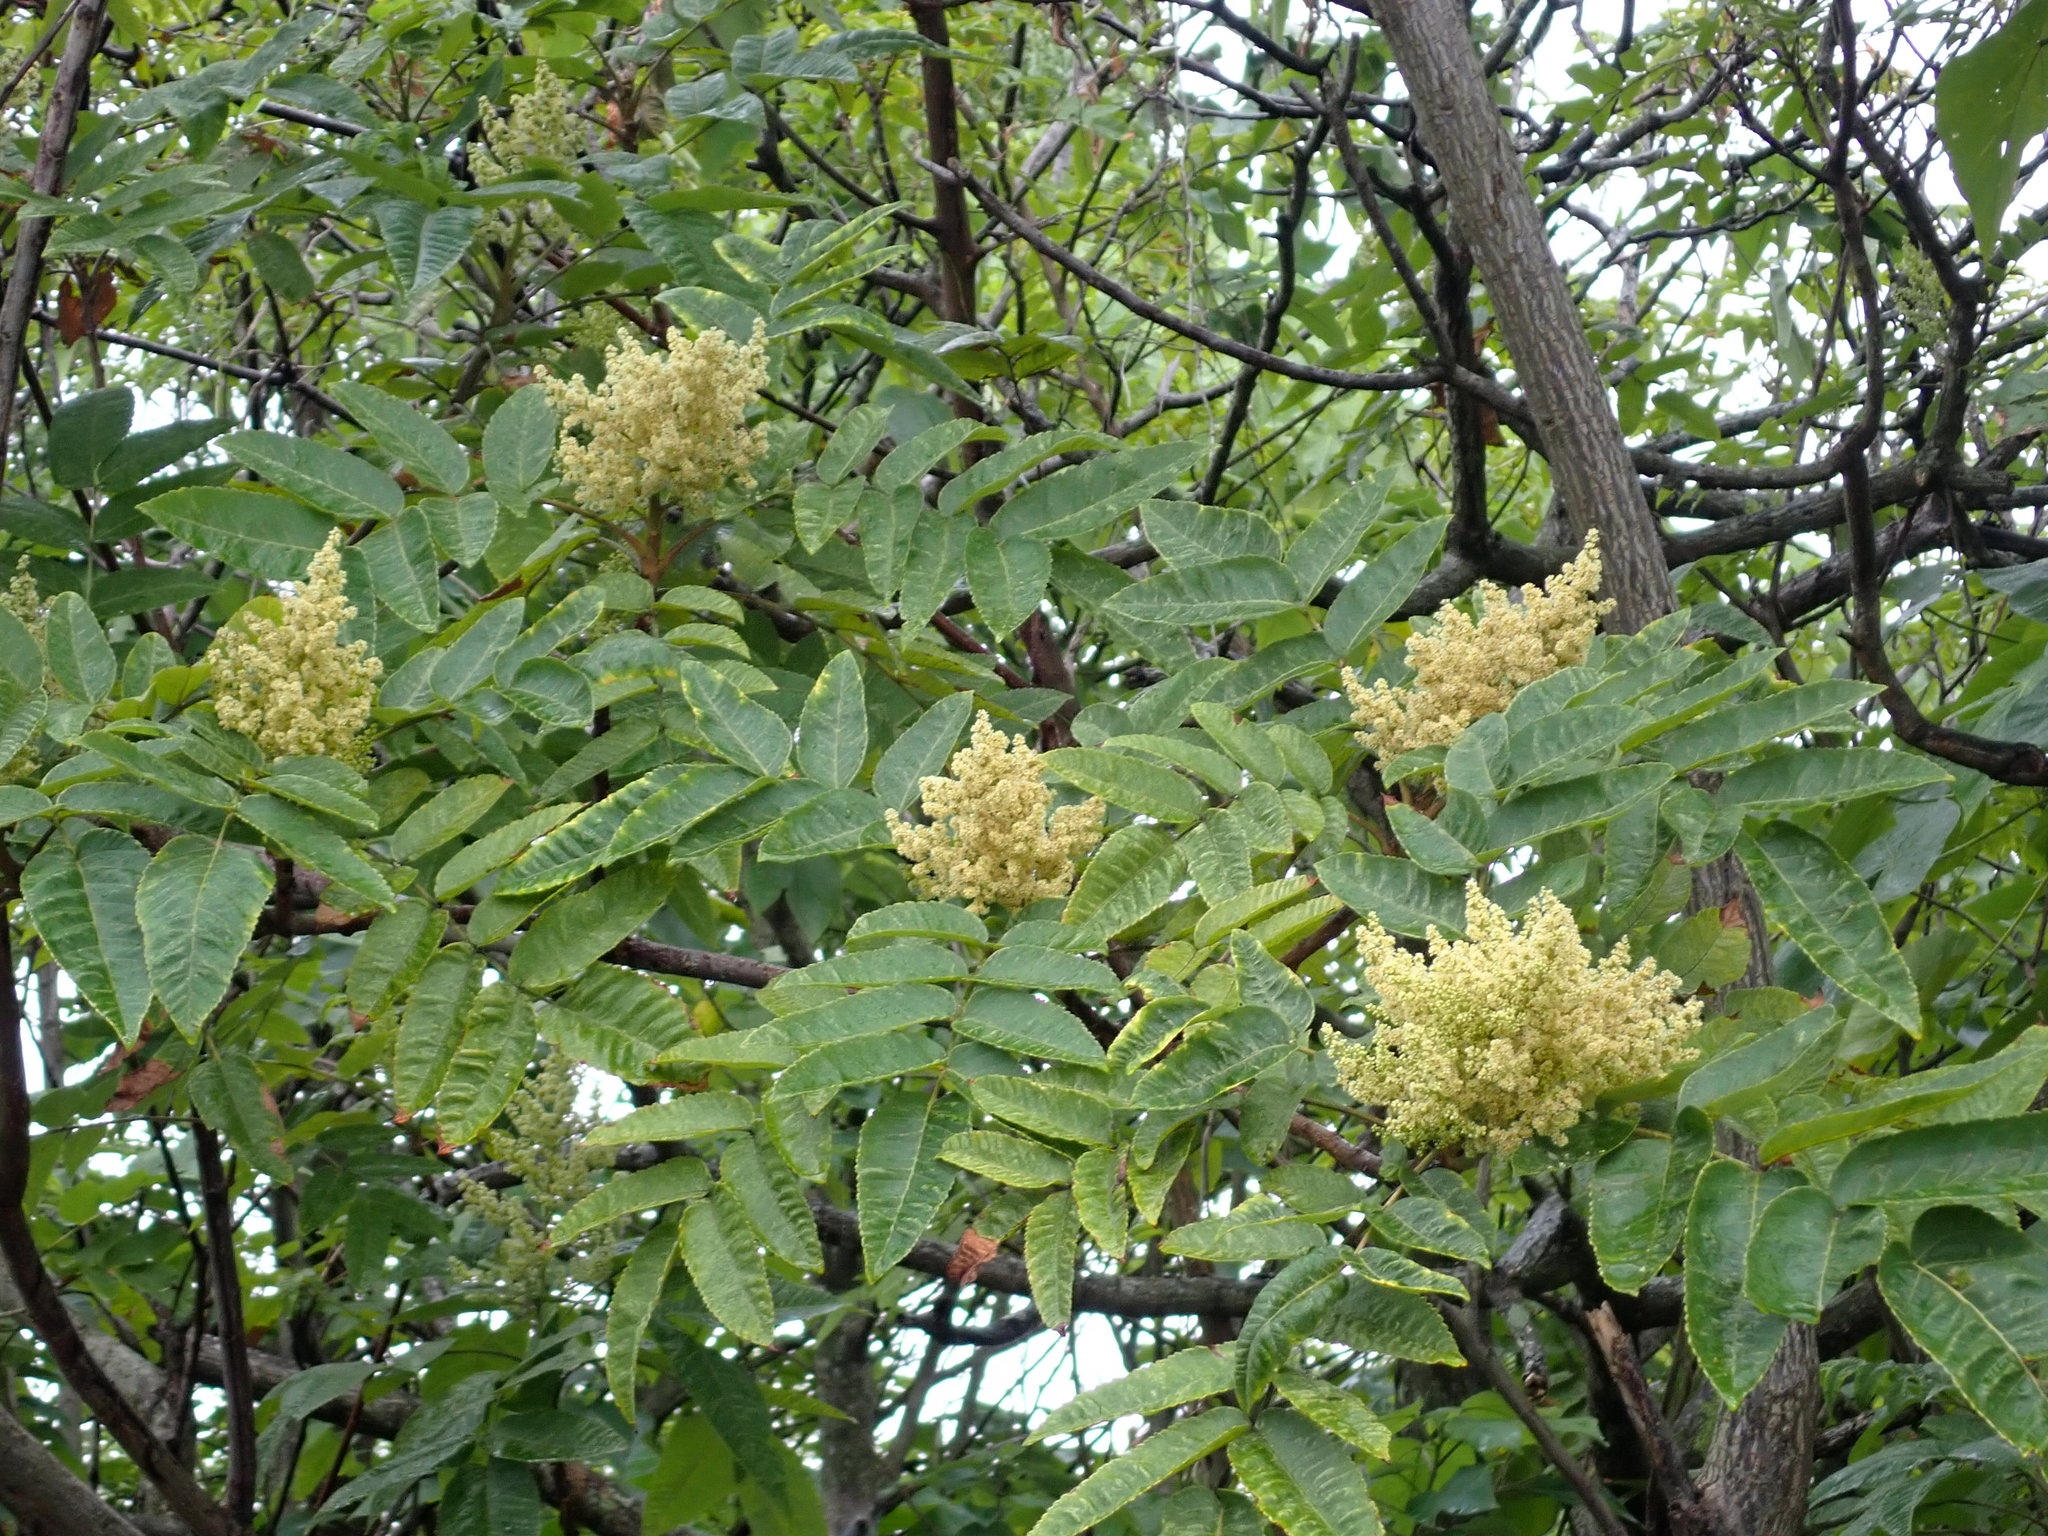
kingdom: Plantae
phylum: Tracheophyta
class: Magnoliopsida
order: Sapindales
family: Anacardiaceae
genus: Rhus
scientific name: Rhus chinensis
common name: Chinese gall
